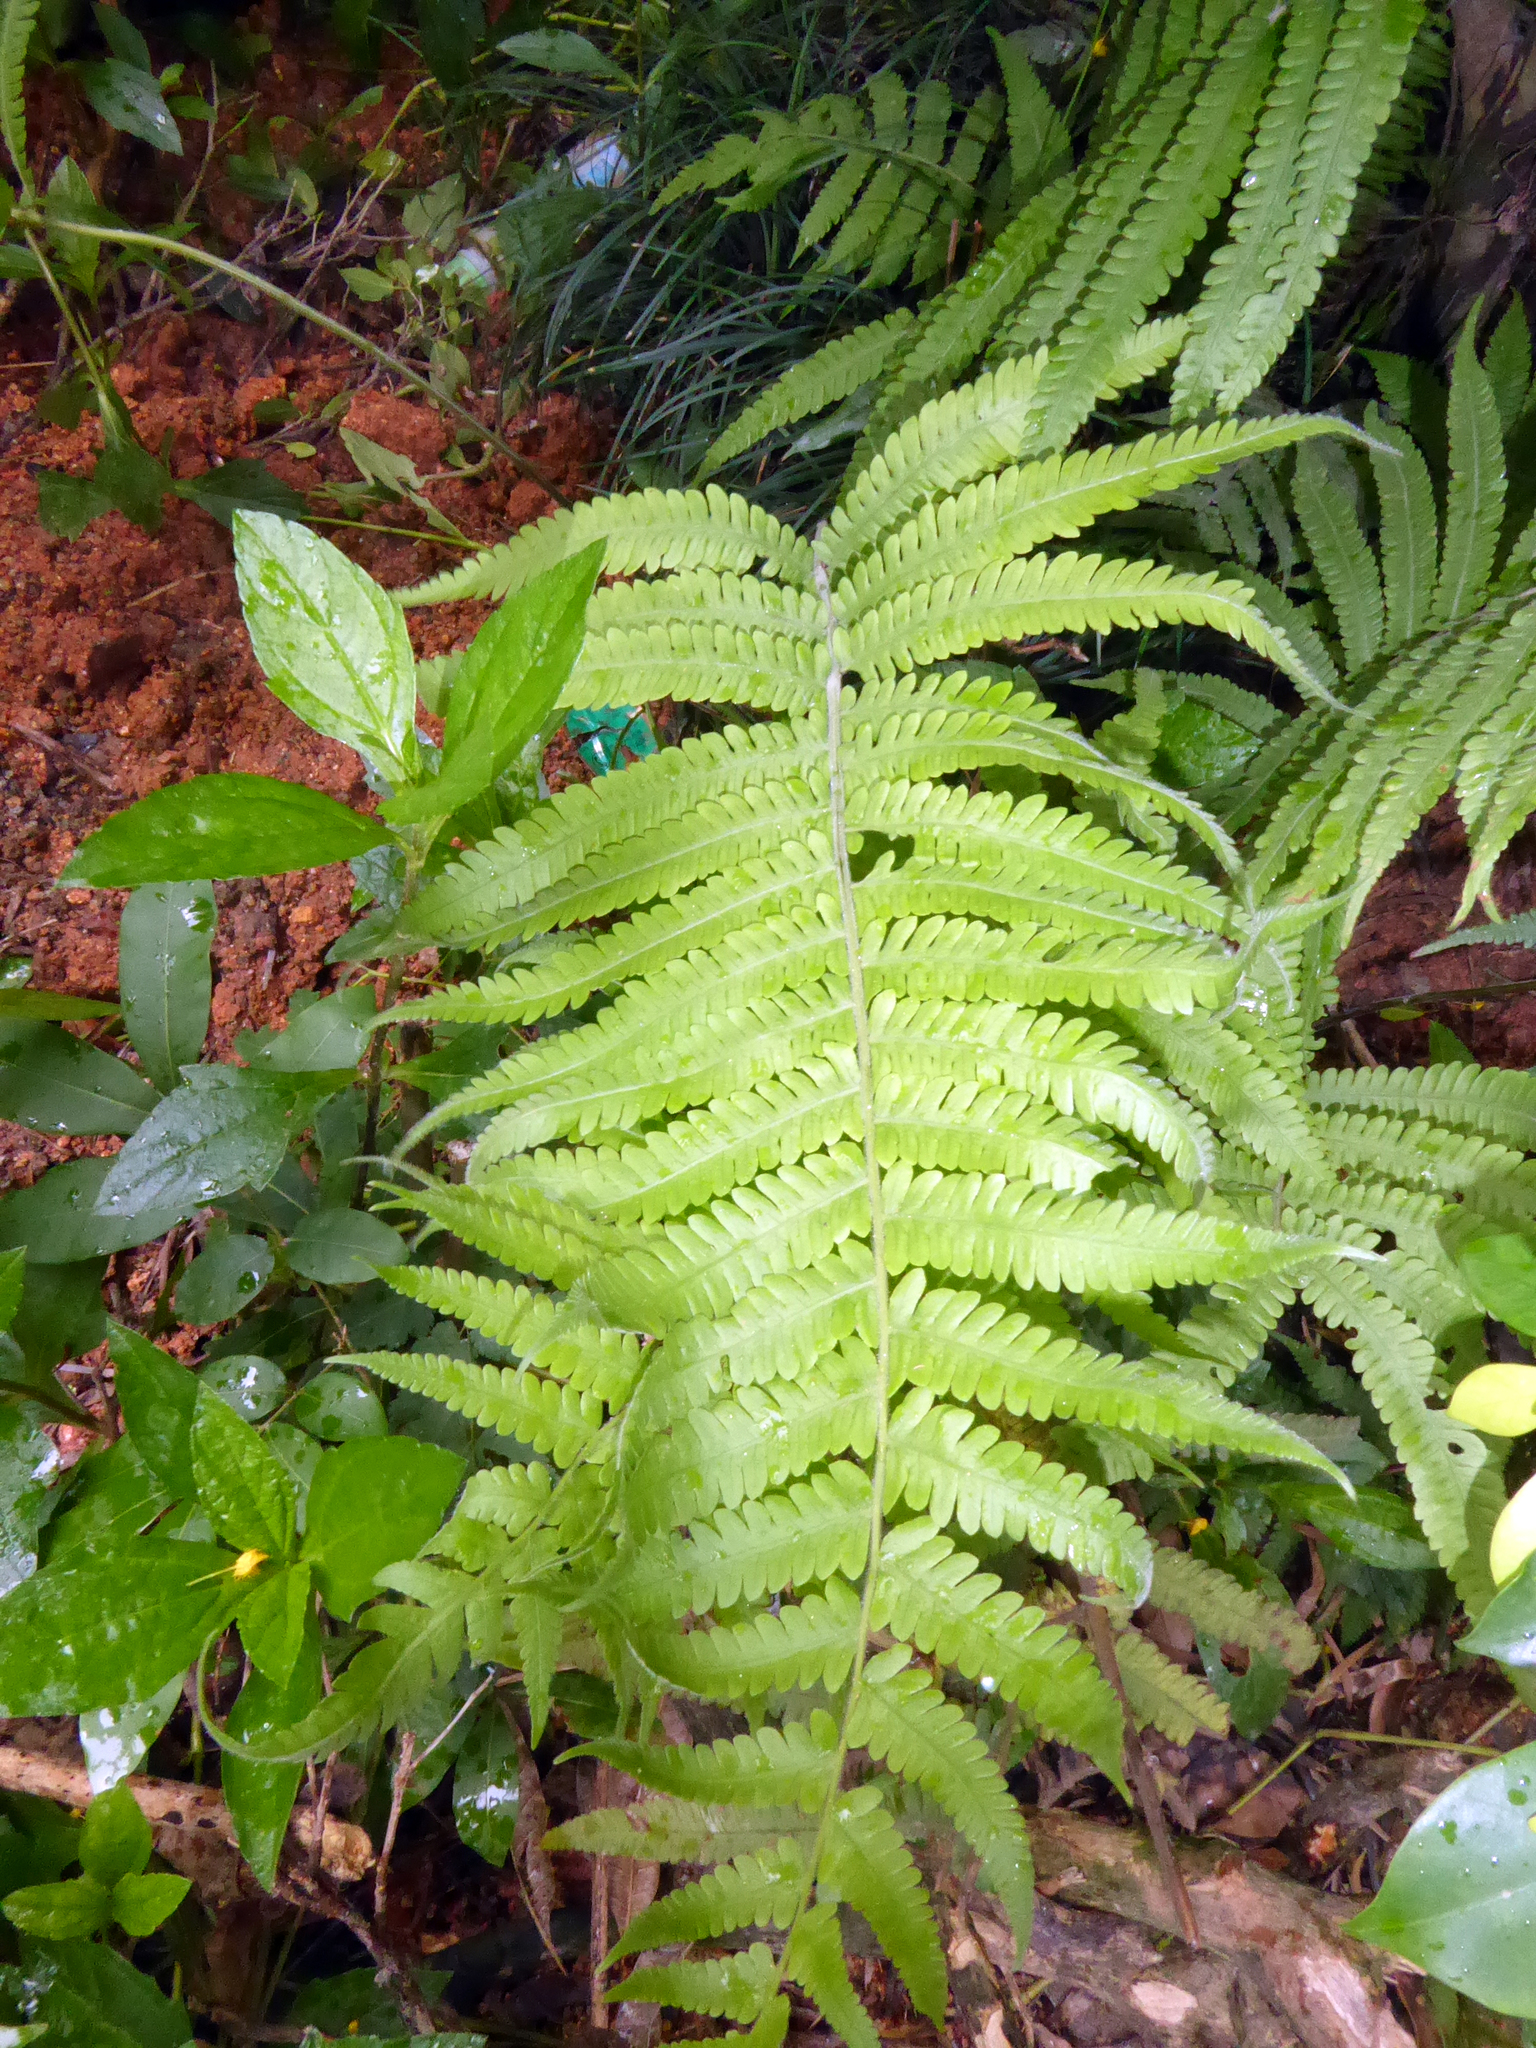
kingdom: Plantae
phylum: Tracheophyta
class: Polypodiopsida
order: Polypodiales
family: Thelypteridaceae
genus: Christella
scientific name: Christella parasitica
